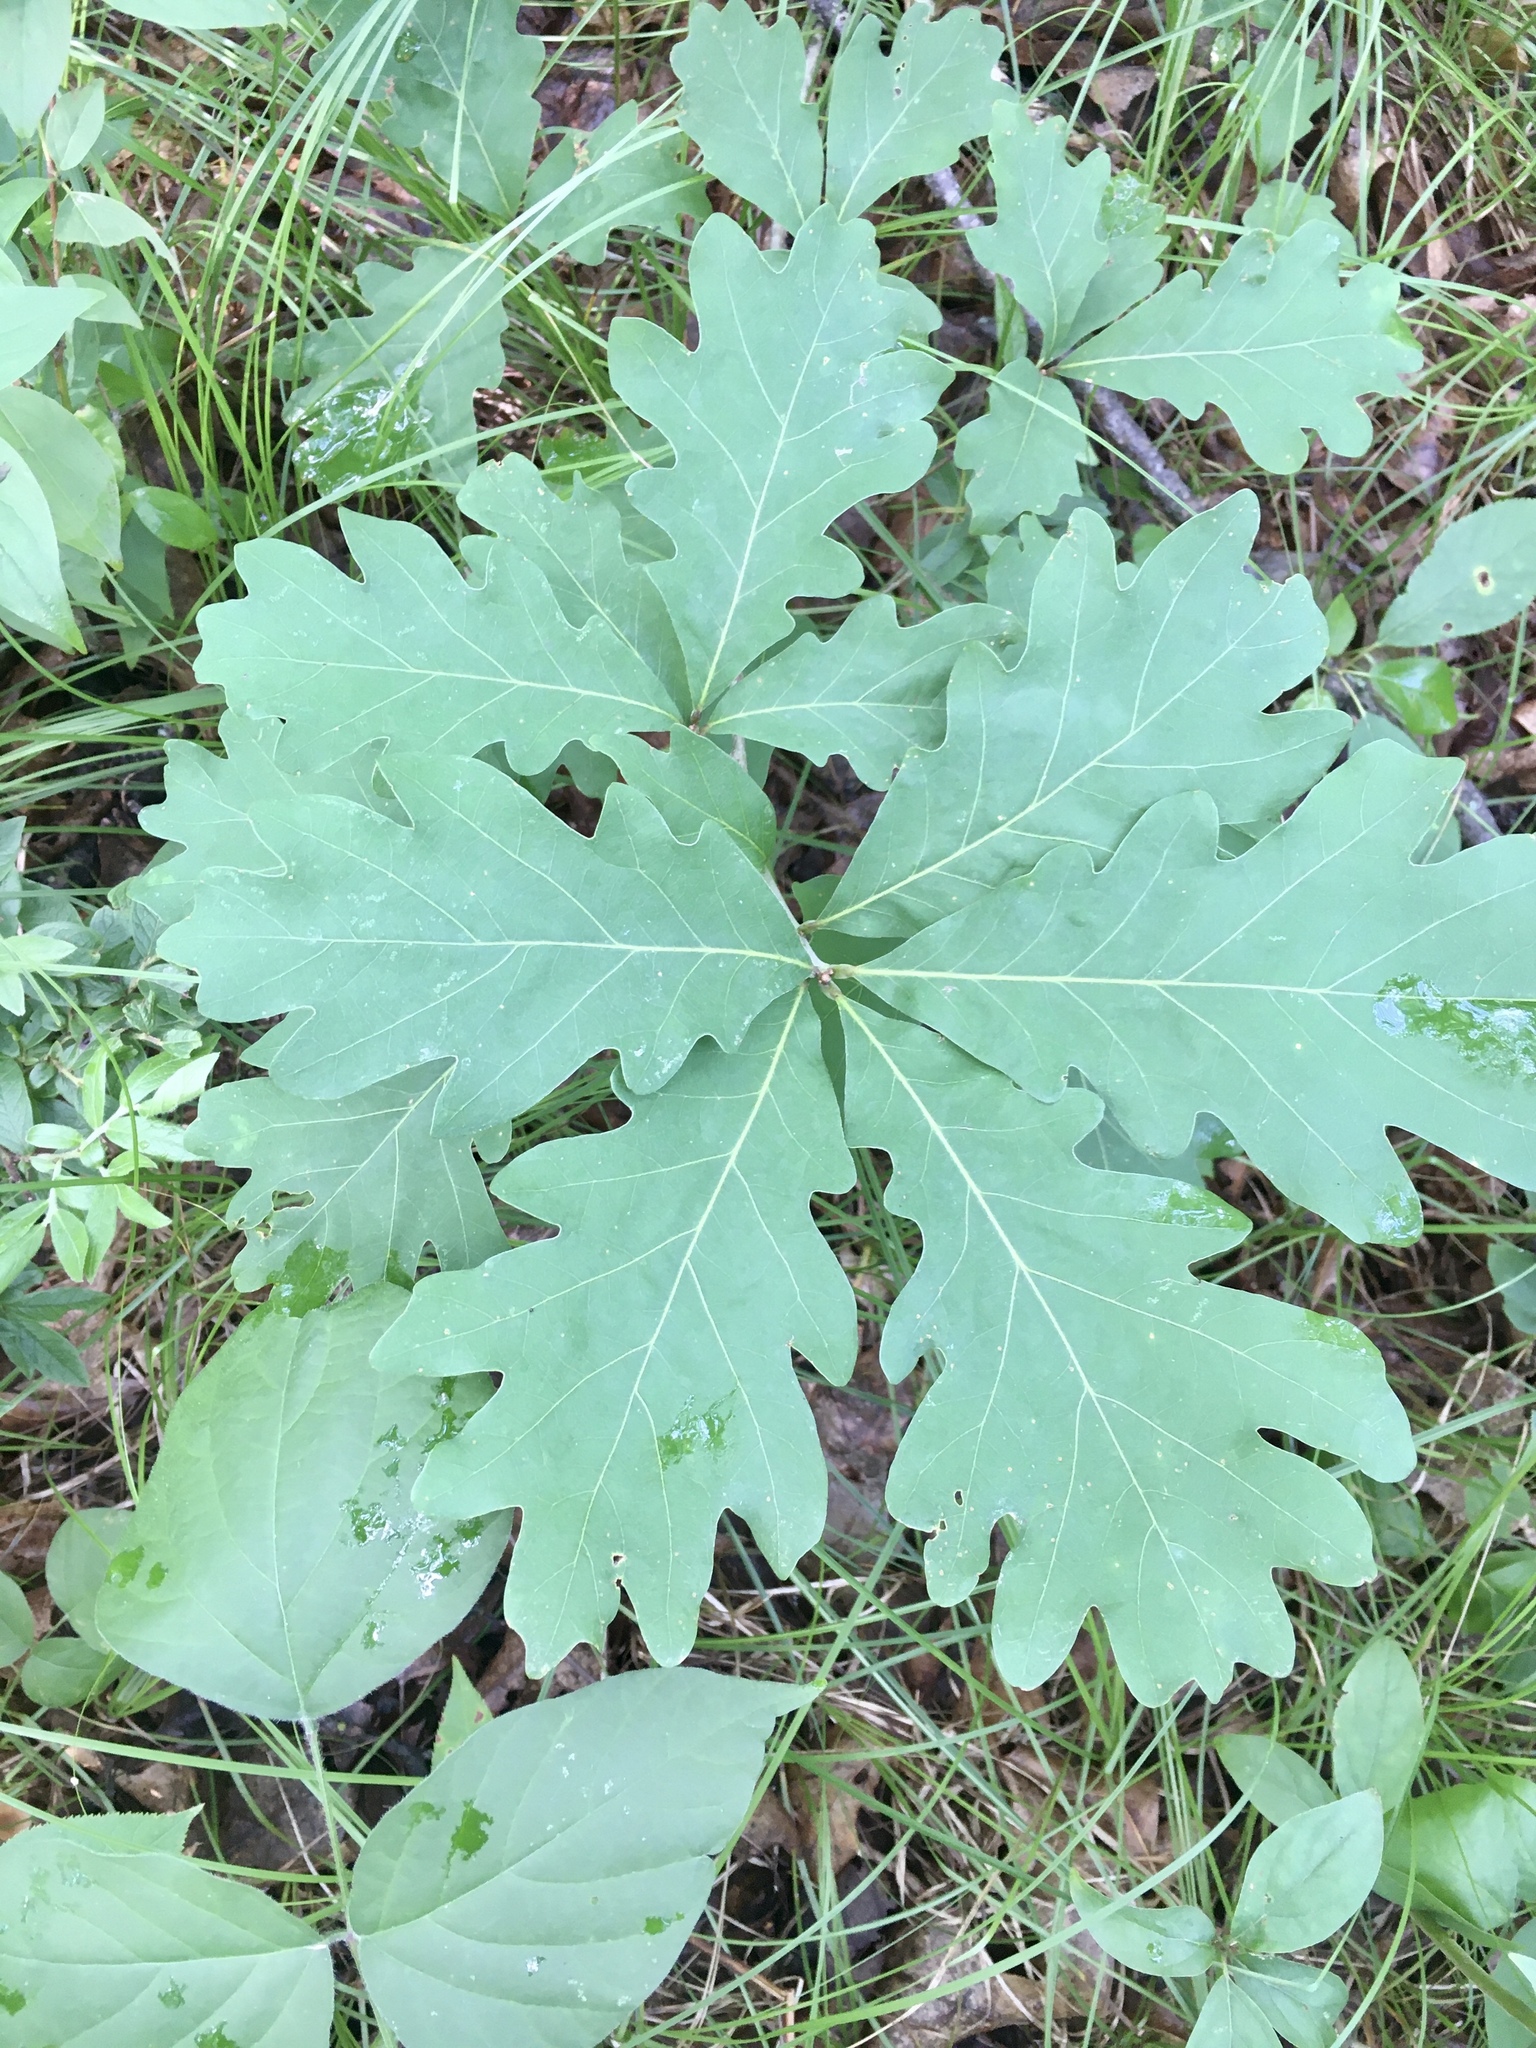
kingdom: Plantae
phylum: Tracheophyta
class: Magnoliopsida
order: Fagales
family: Fagaceae
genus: Quercus
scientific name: Quercus alba
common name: White oak
